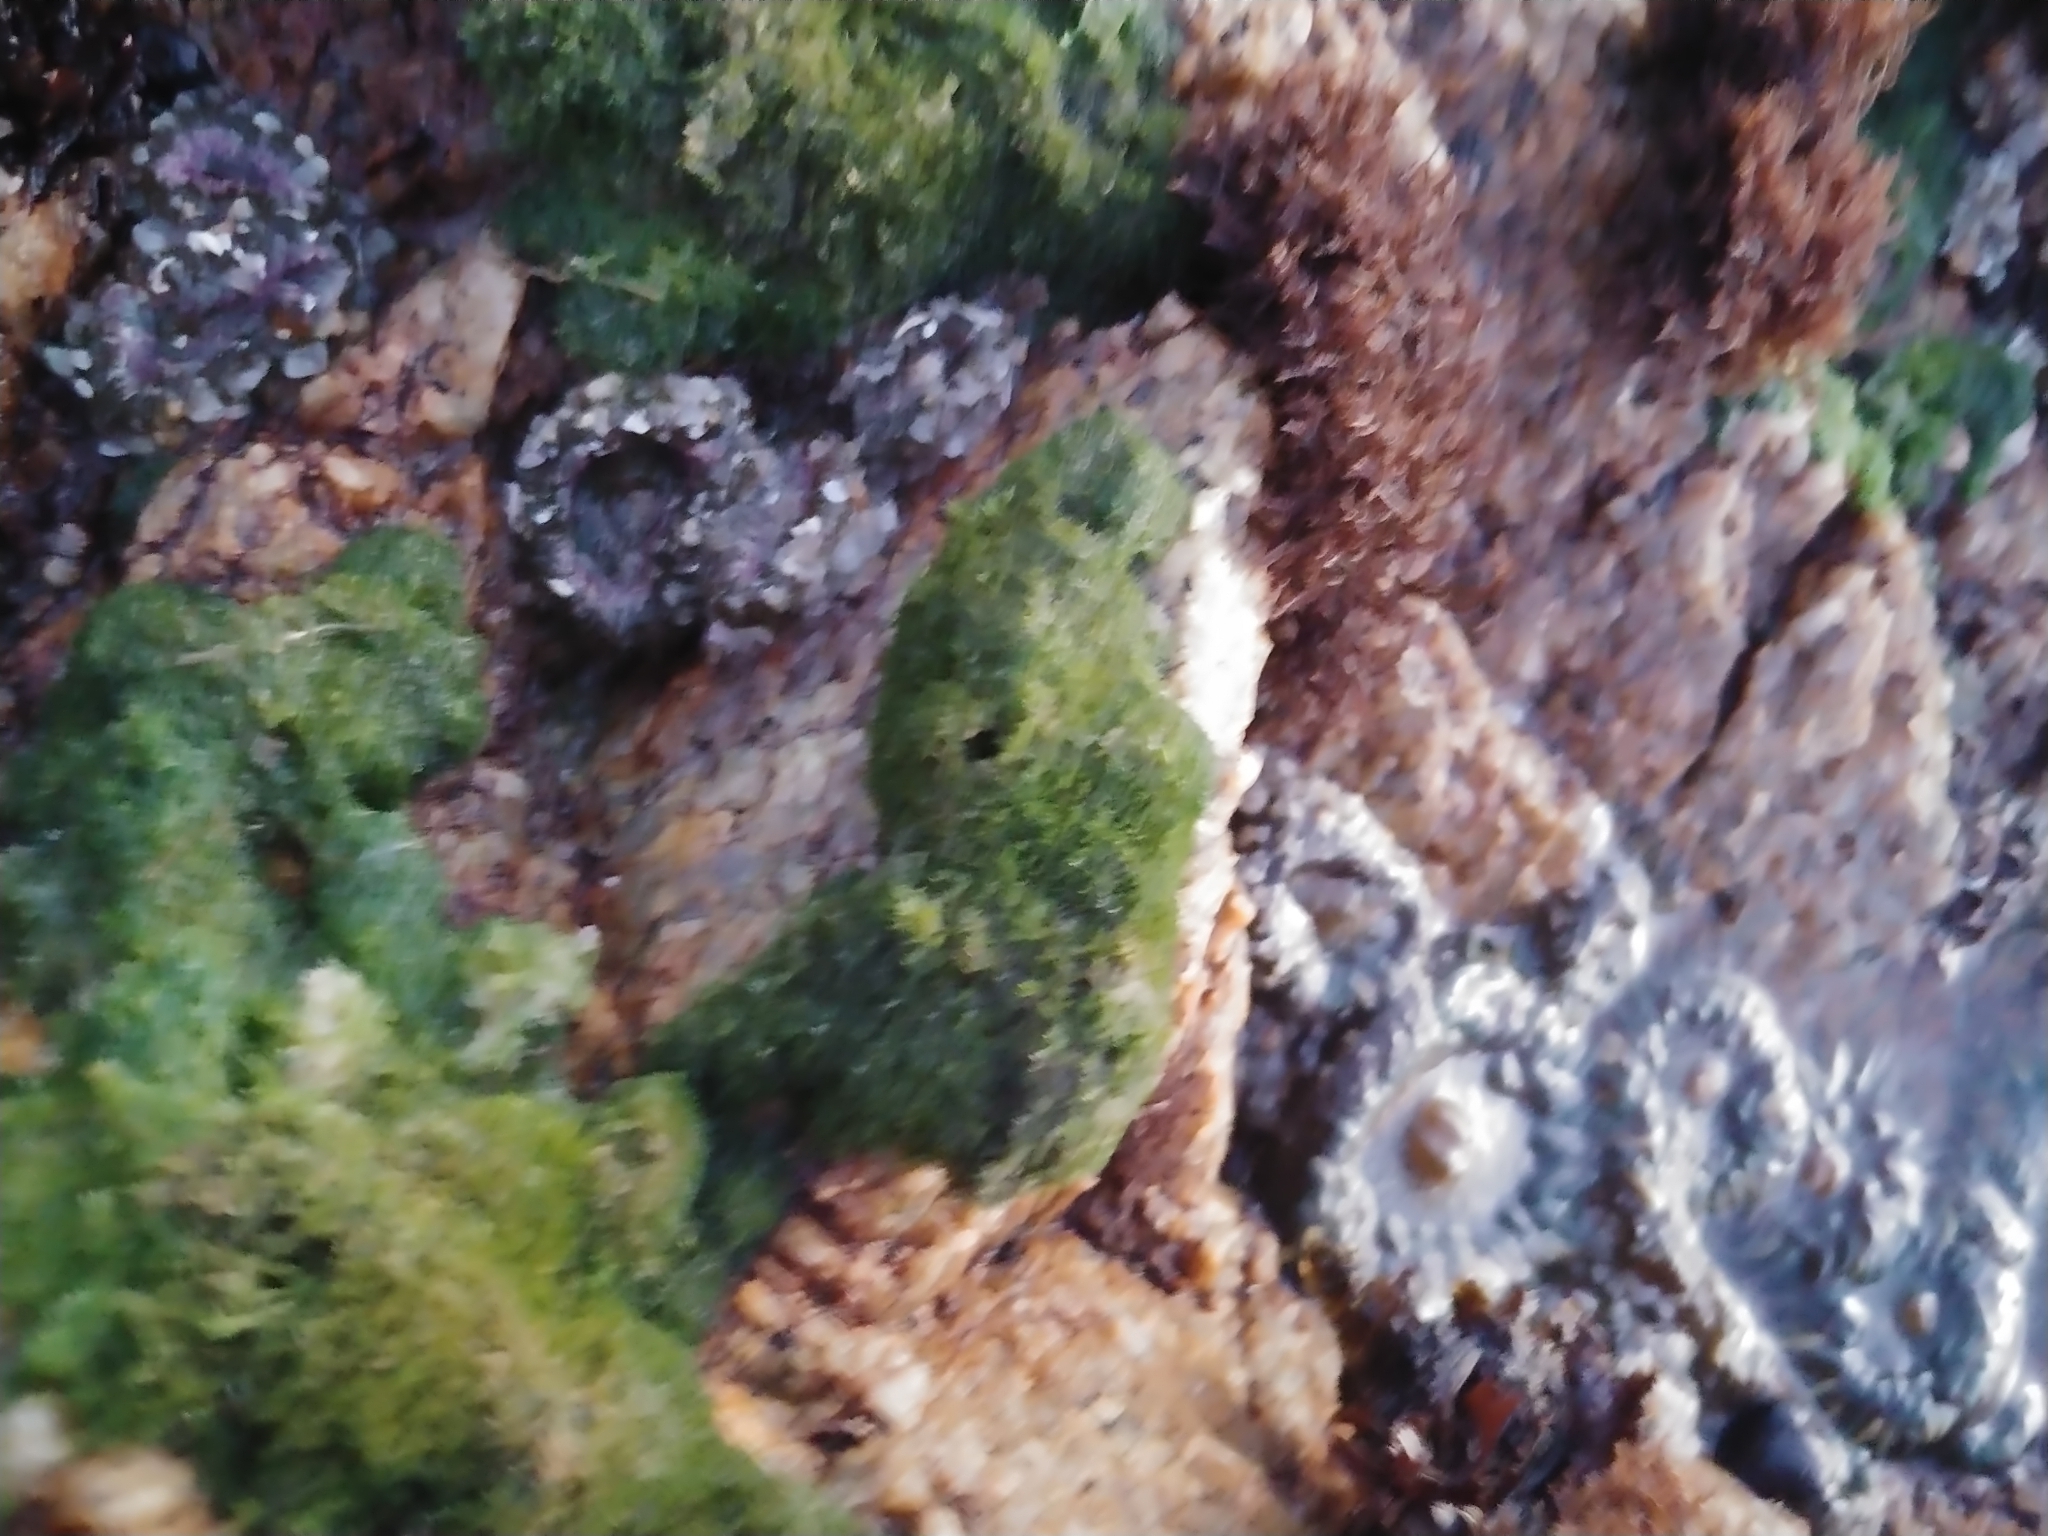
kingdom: Animalia
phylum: Cnidaria
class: Anthozoa
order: Actiniaria
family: Actiniidae
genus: Anthopleura
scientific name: Anthopleura elegantissima
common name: Clonal anemone
